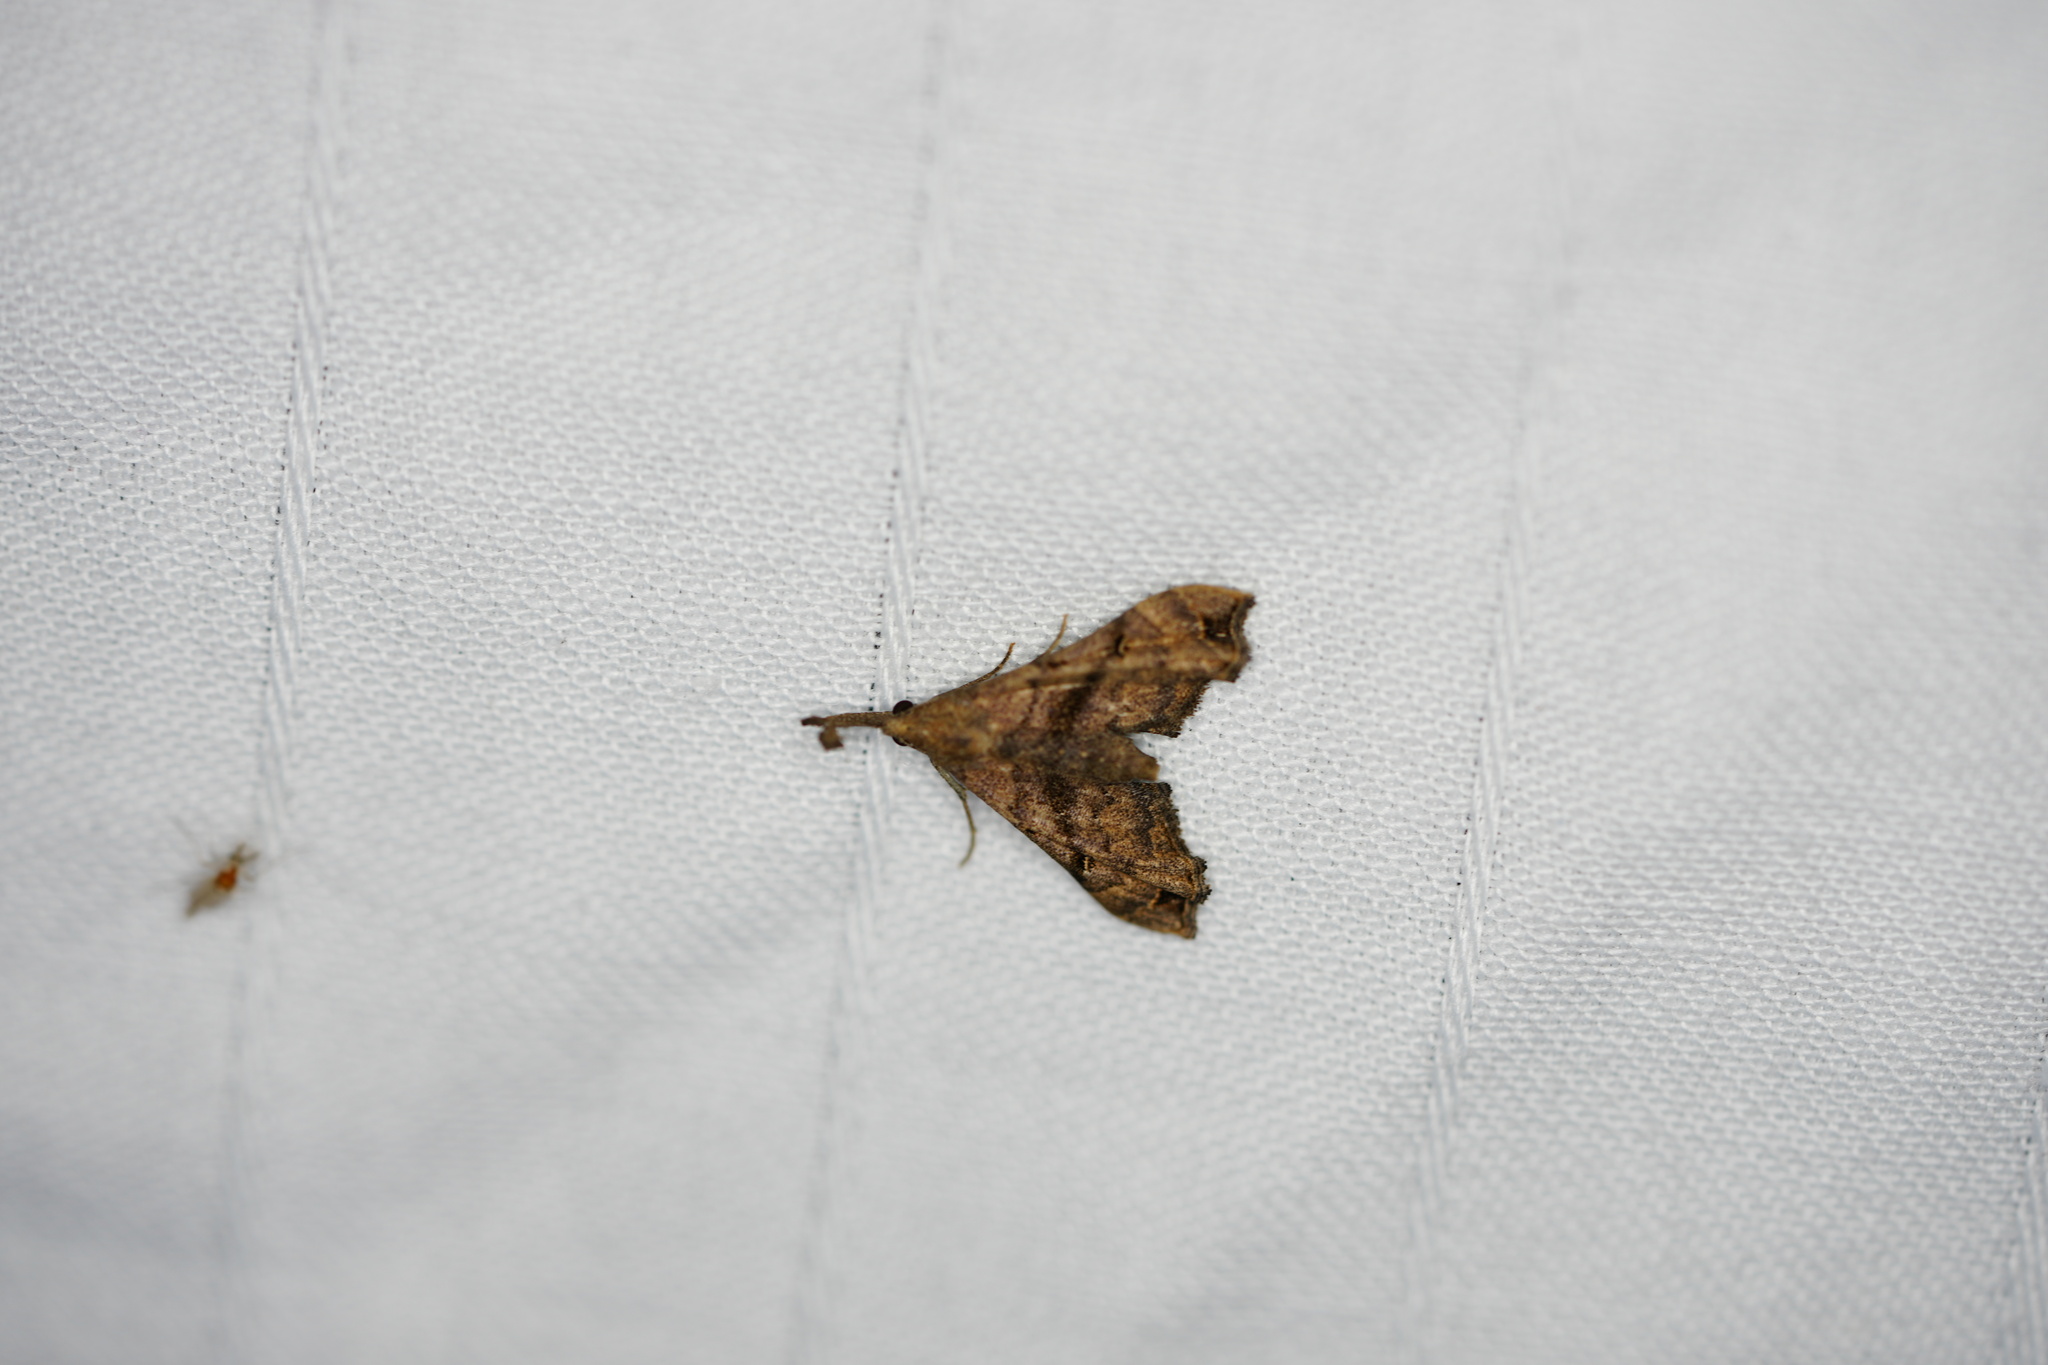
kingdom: Animalia
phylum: Arthropoda
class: Insecta
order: Lepidoptera
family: Erebidae
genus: Palthis
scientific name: Palthis asopialis
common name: Faint-spotted palthis moth
